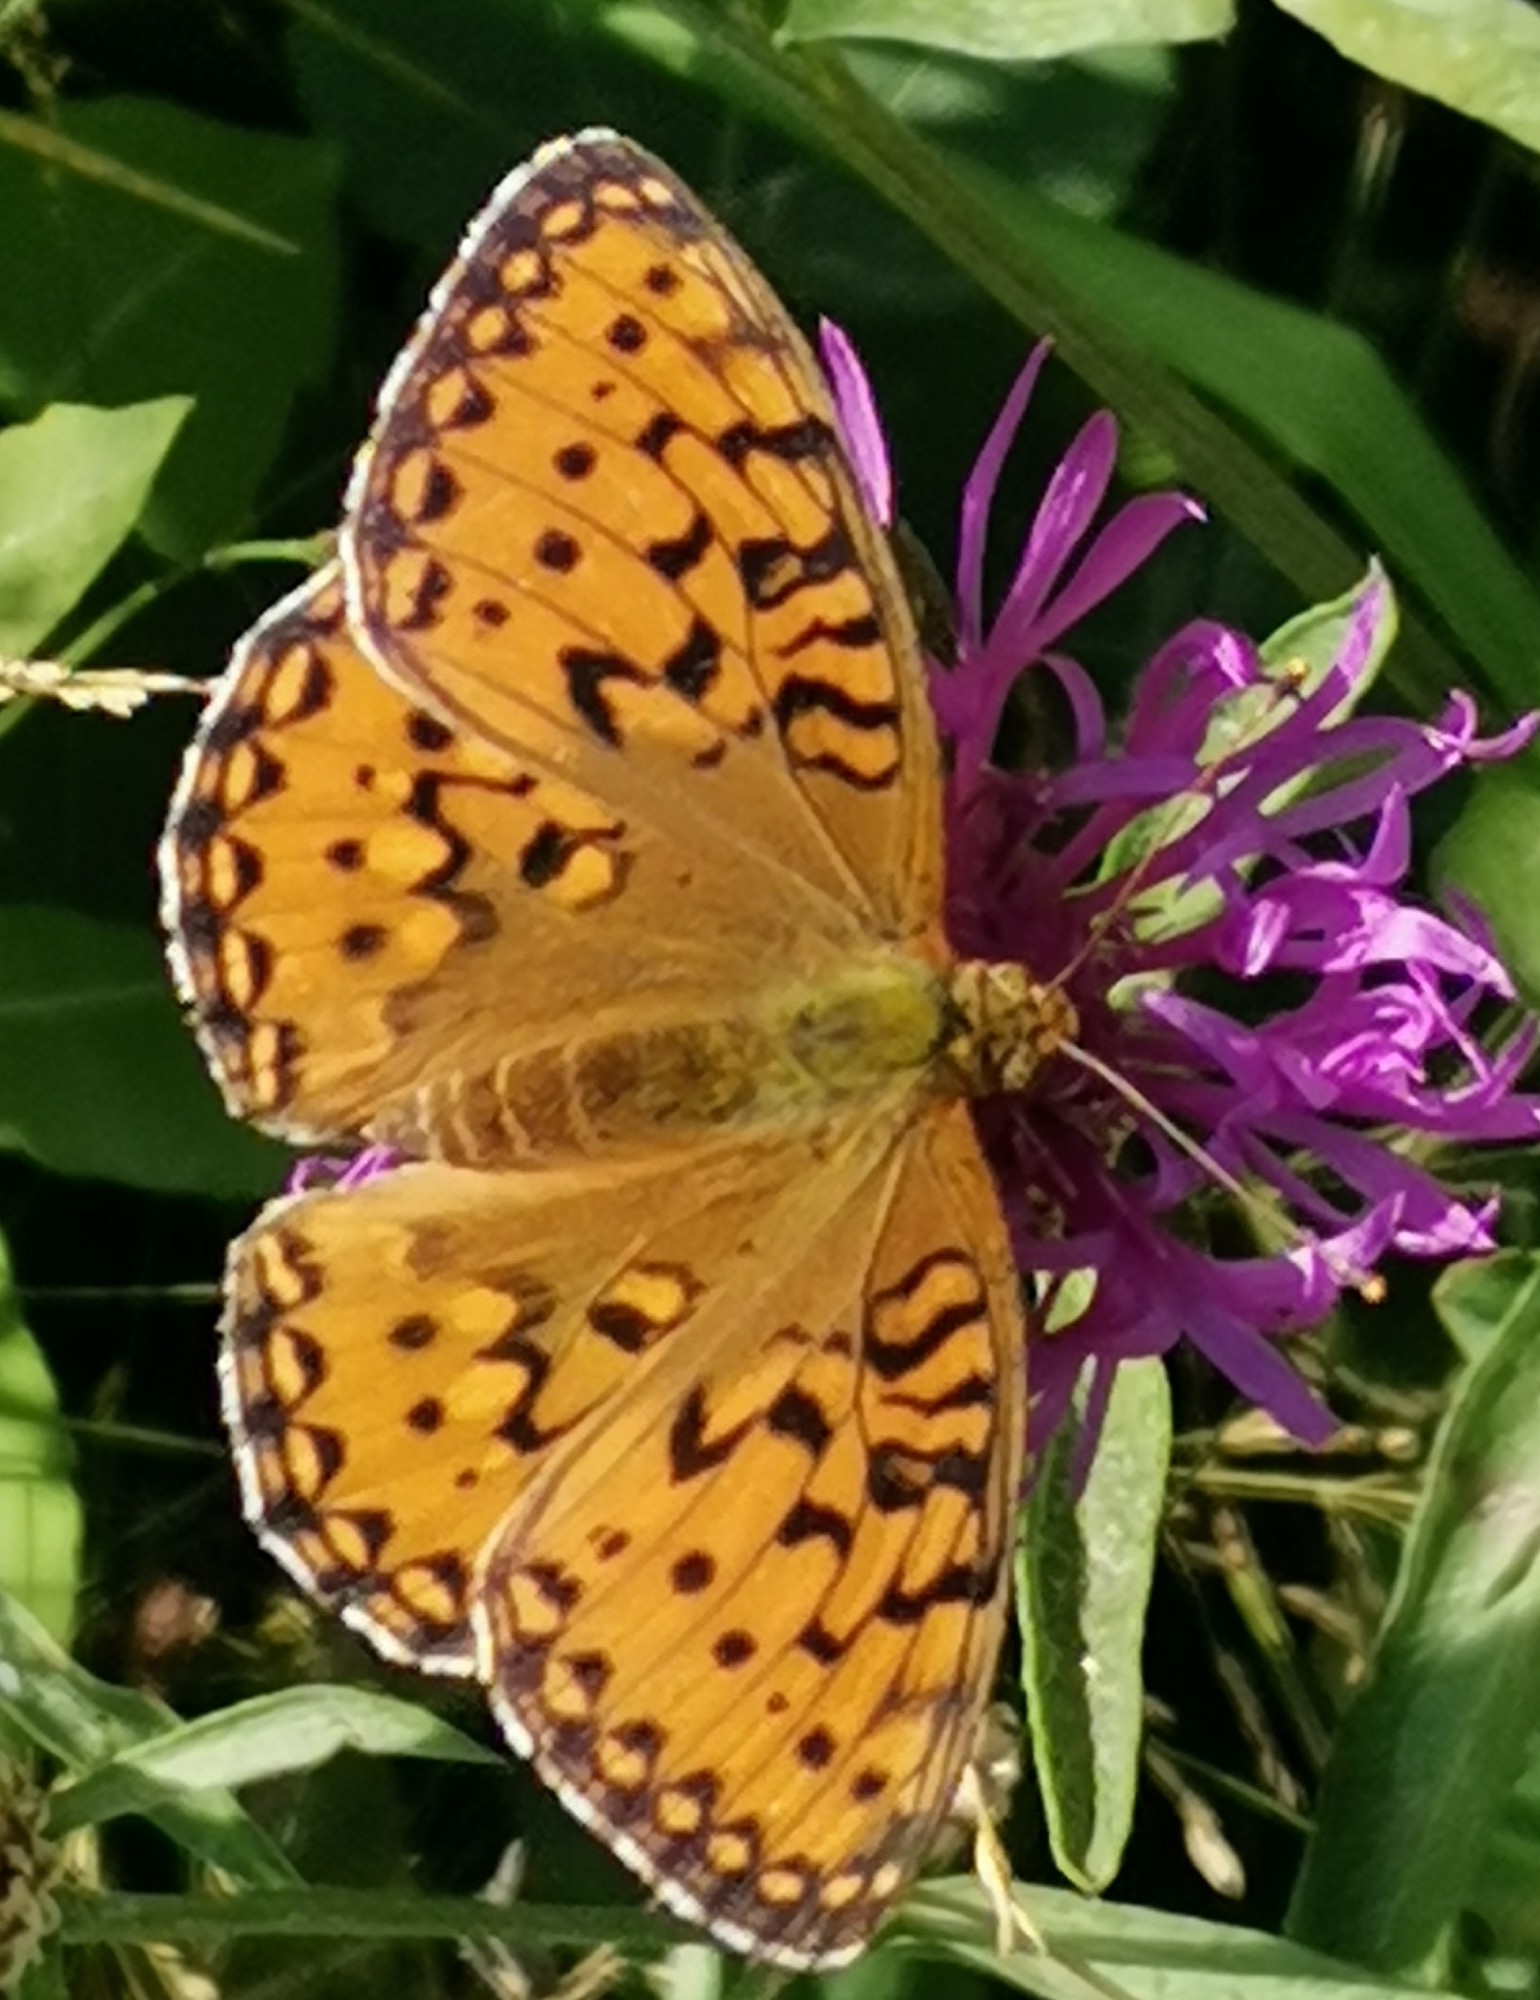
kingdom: Animalia
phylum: Arthropoda
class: Insecta
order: Lepidoptera
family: Nymphalidae
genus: Speyeria
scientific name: Speyeria aglaja
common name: Dark green fritillary
